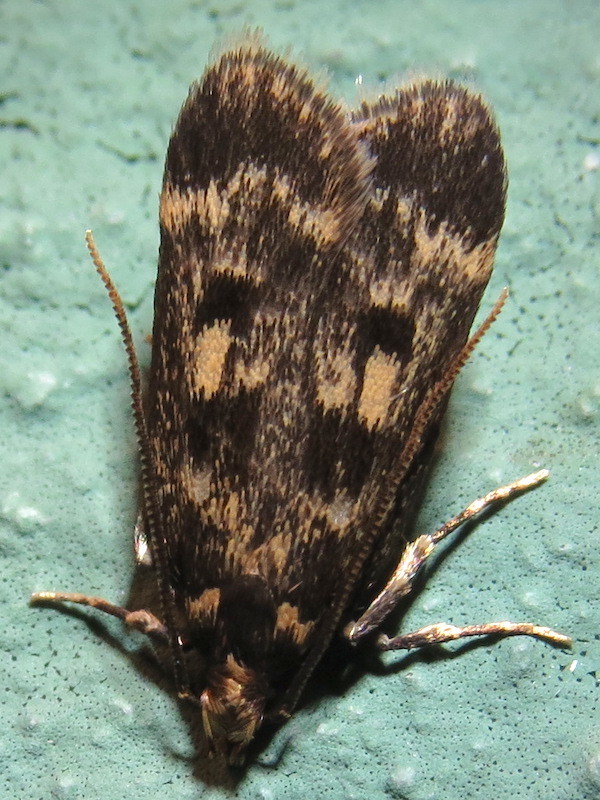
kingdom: Animalia
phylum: Arthropoda
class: Insecta
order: Lepidoptera
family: Lecithoceridae
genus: Martyringa
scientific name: Martyringa latipennis
